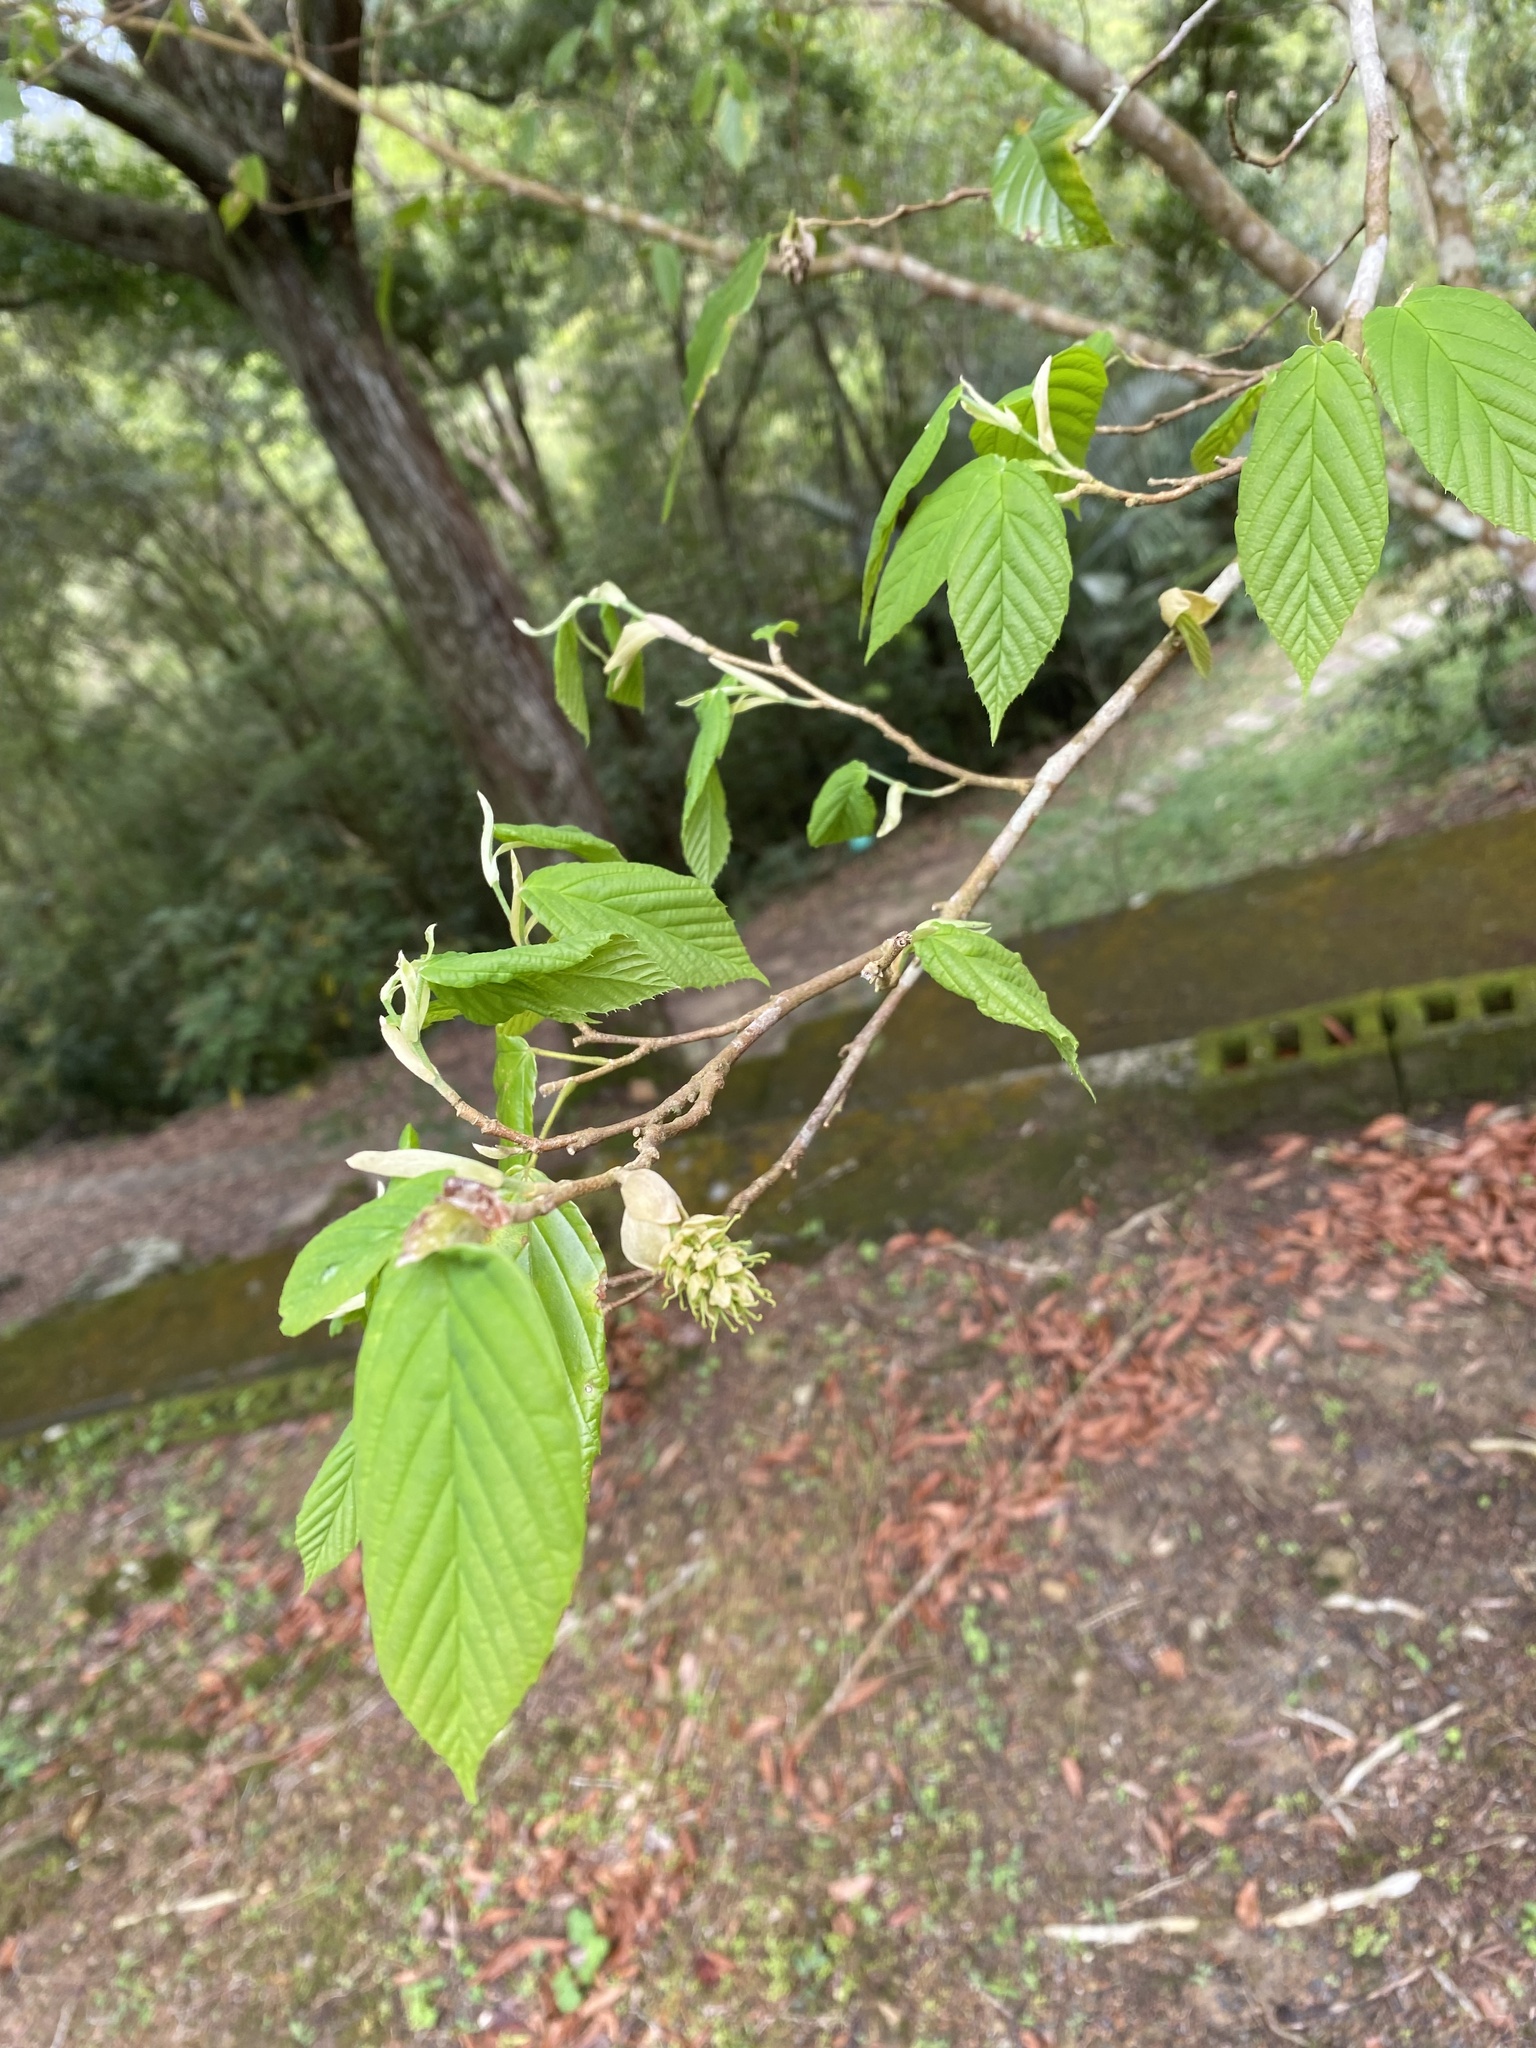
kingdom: Plantae
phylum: Tracheophyta
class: Magnoliopsida
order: Saxifragales
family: Hamamelidaceae
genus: Corylopsis
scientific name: Corylopsis multiflora
